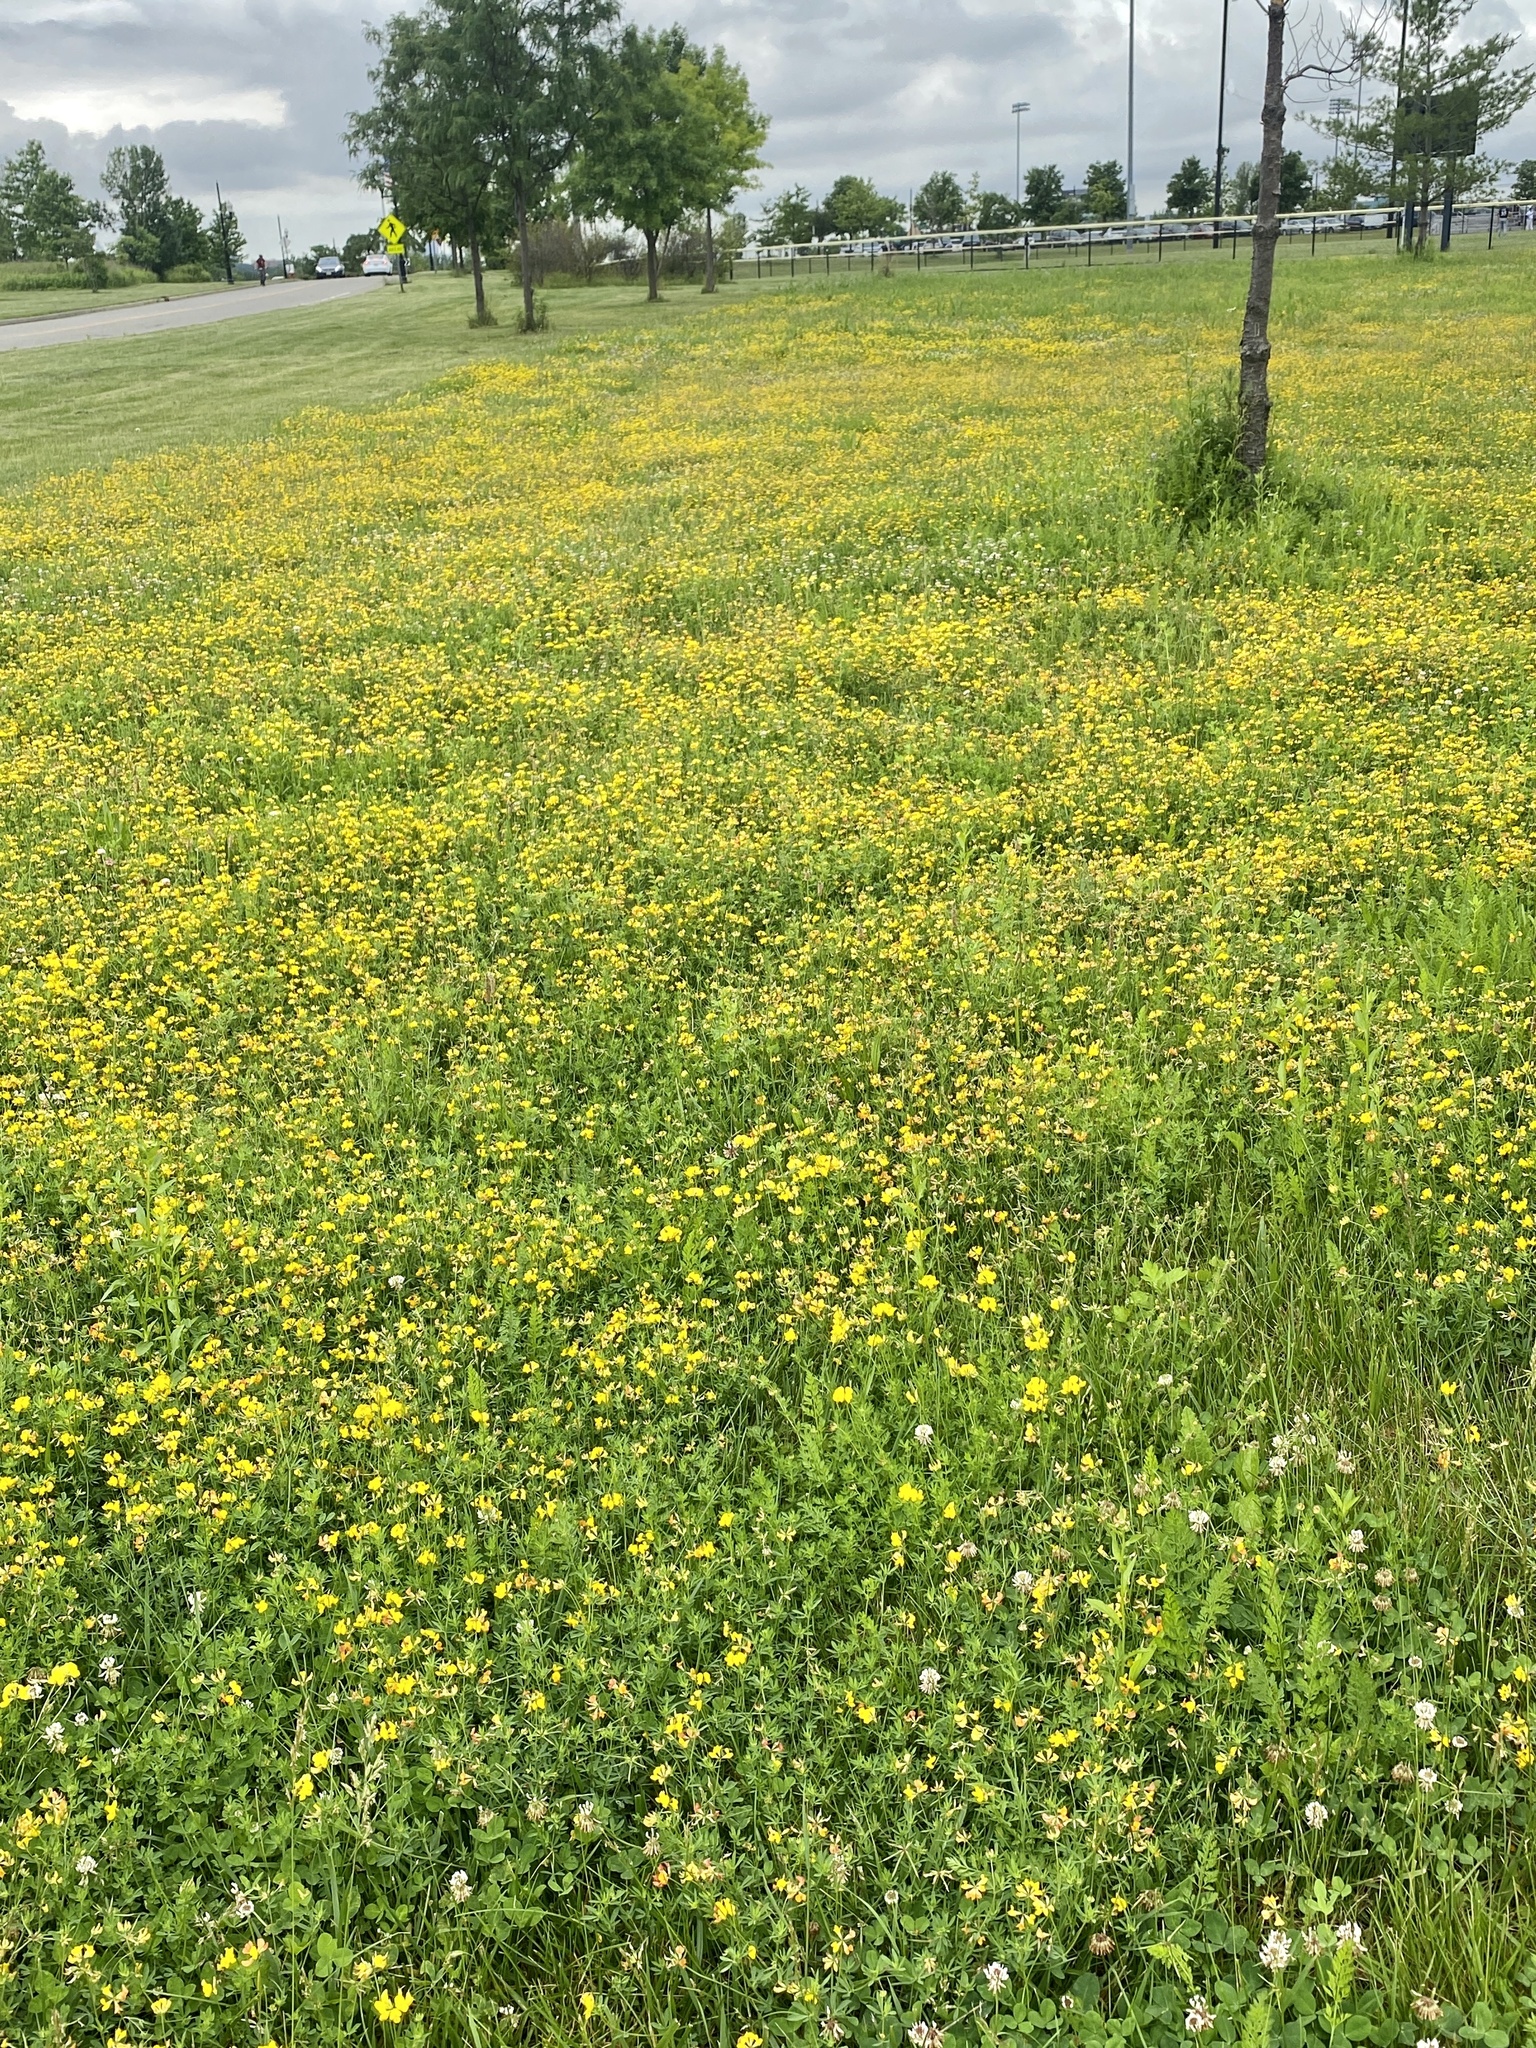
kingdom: Plantae
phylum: Tracheophyta
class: Magnoliopsida
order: Fabales
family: Fabaceae
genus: Lotus
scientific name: Lotus corniculatus
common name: Common bird's-foot-trefoil
